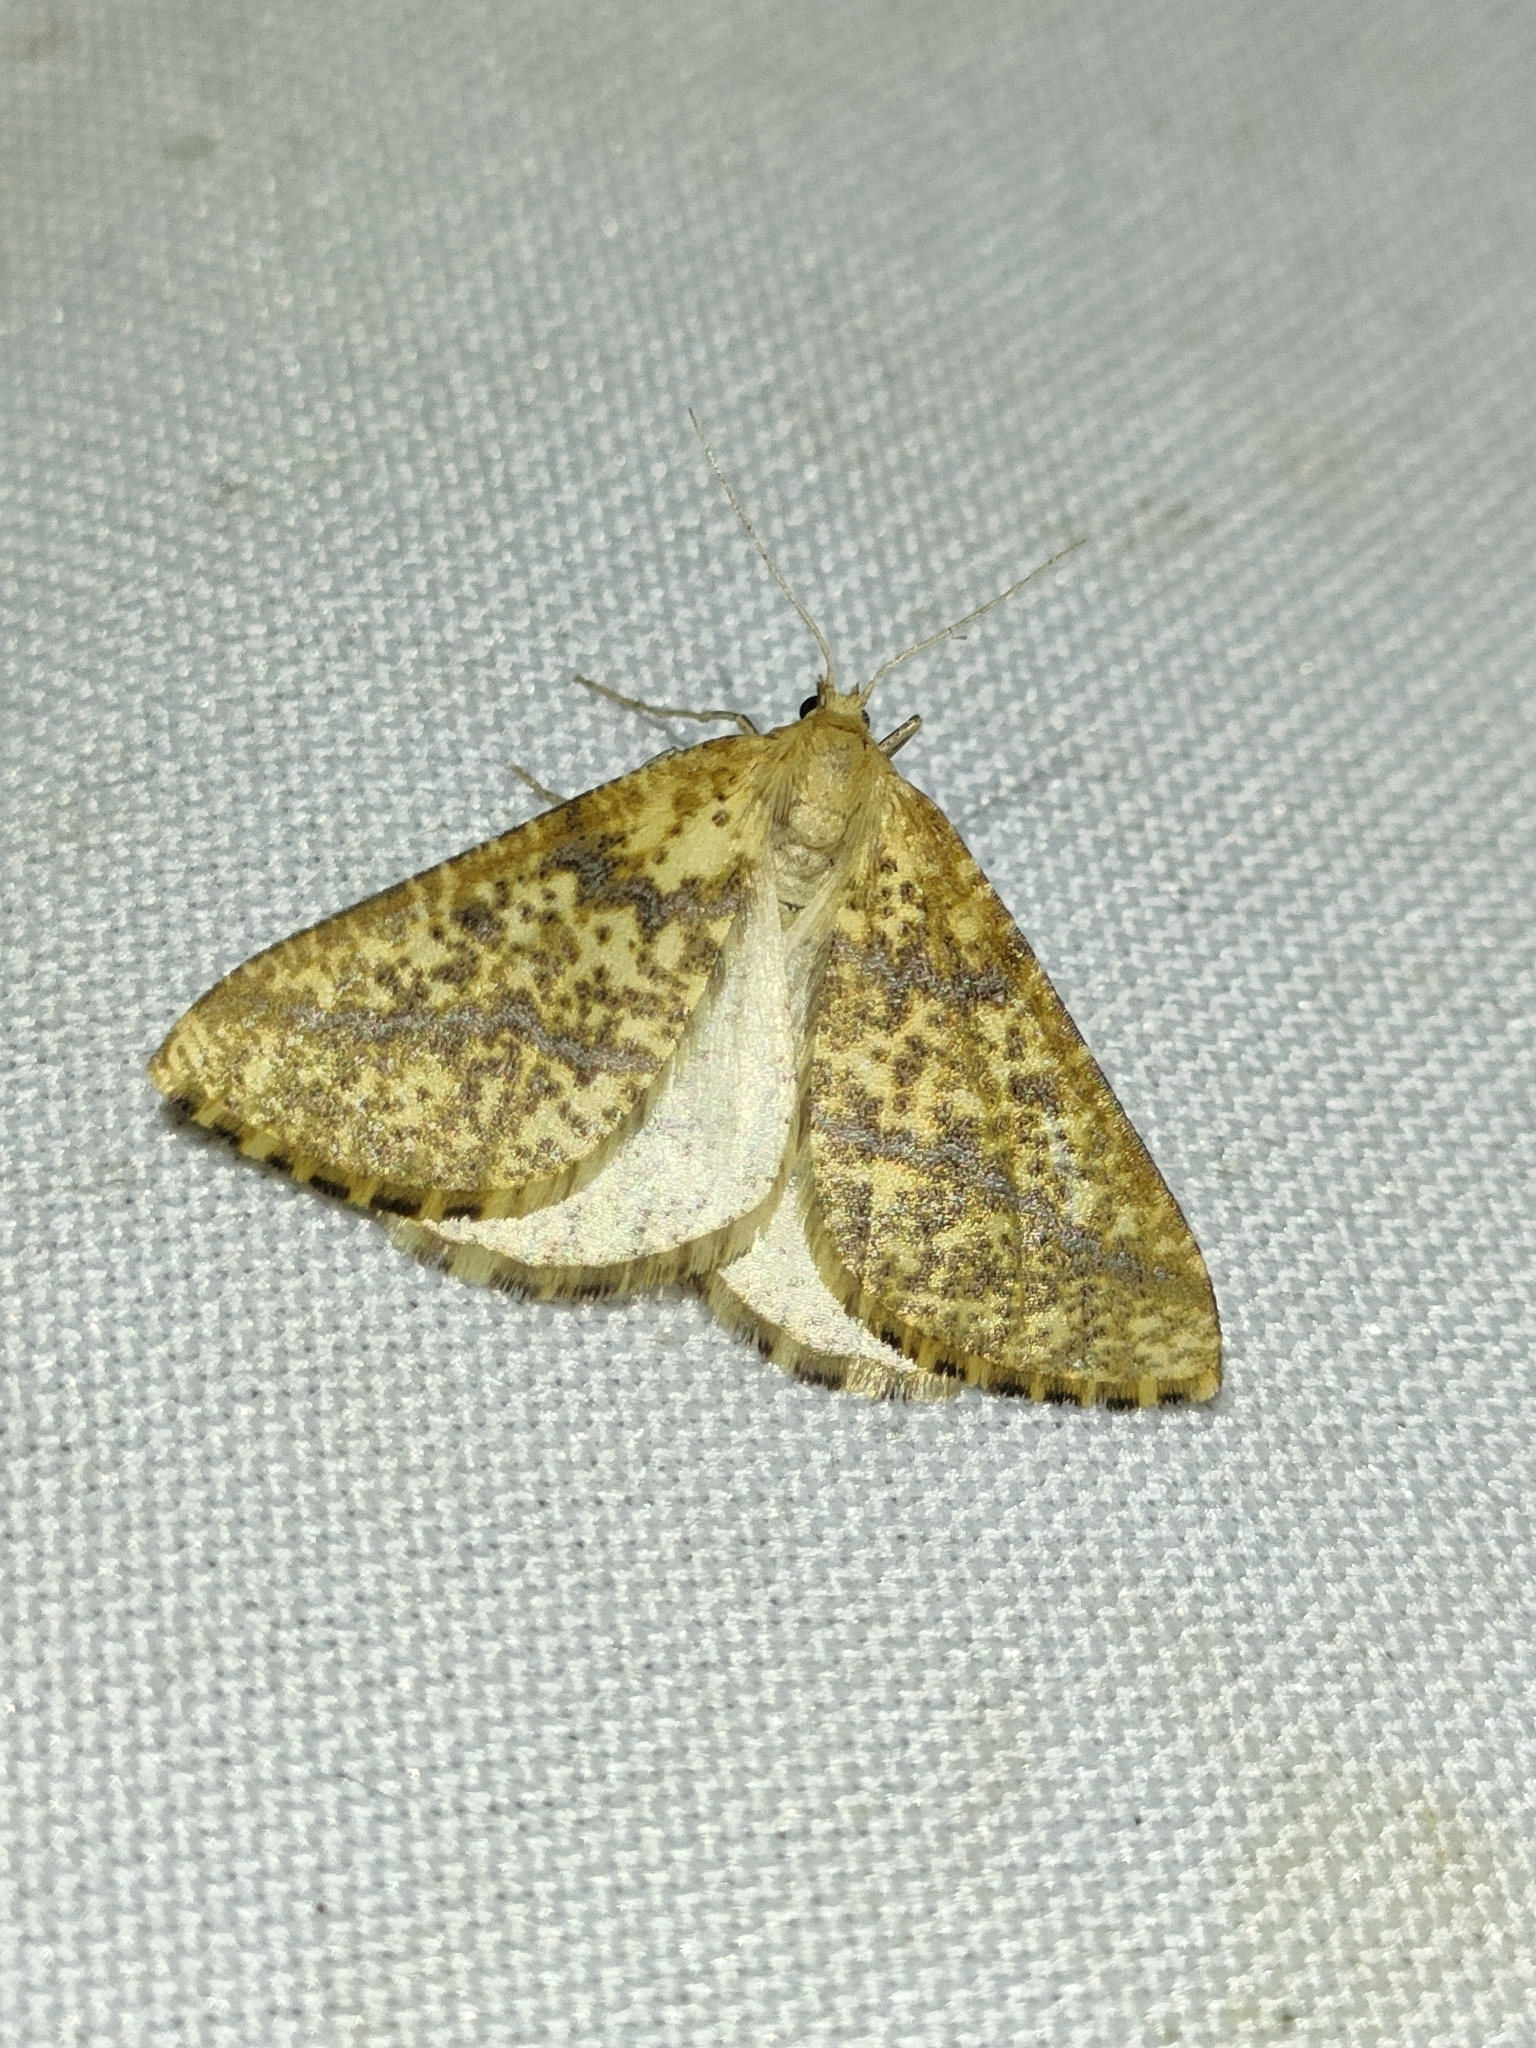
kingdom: Animalia
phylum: Arthropoda
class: Insecta
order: Lepidoptera
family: Geometridae
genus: Aspitates
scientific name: Aspitates ochrearia
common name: Yellow belle
